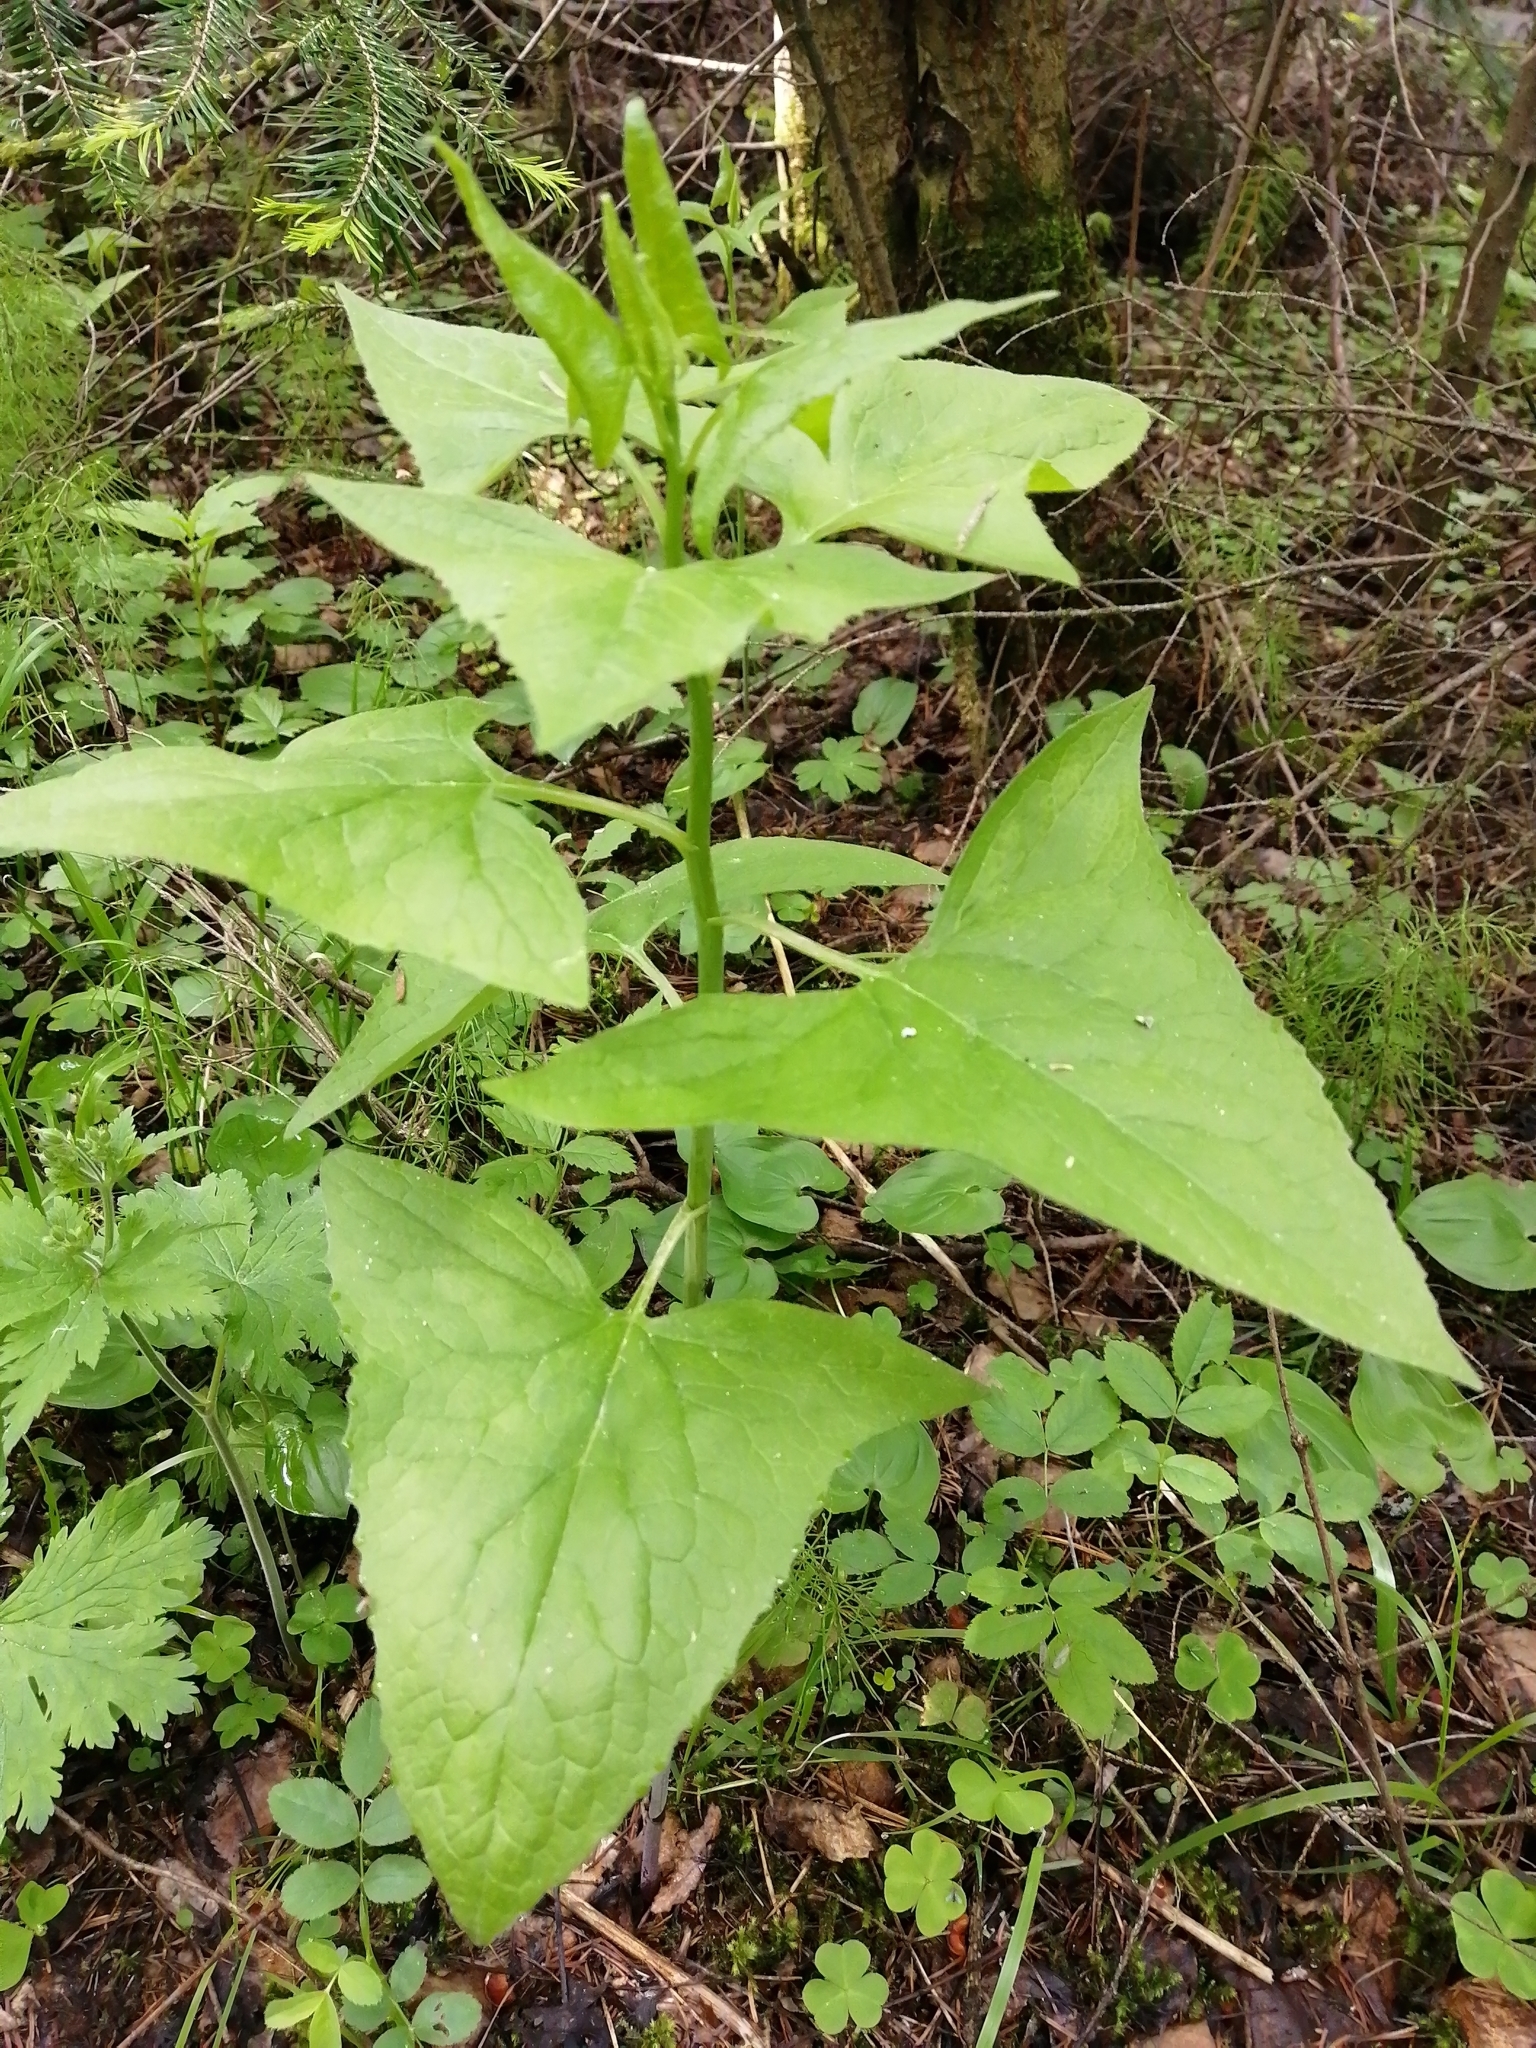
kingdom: Plantae
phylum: Tracheophyta
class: Magnoliopsida
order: Asterales
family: Asteraceae
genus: Parasenecio
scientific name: Parasenecio hastatus
